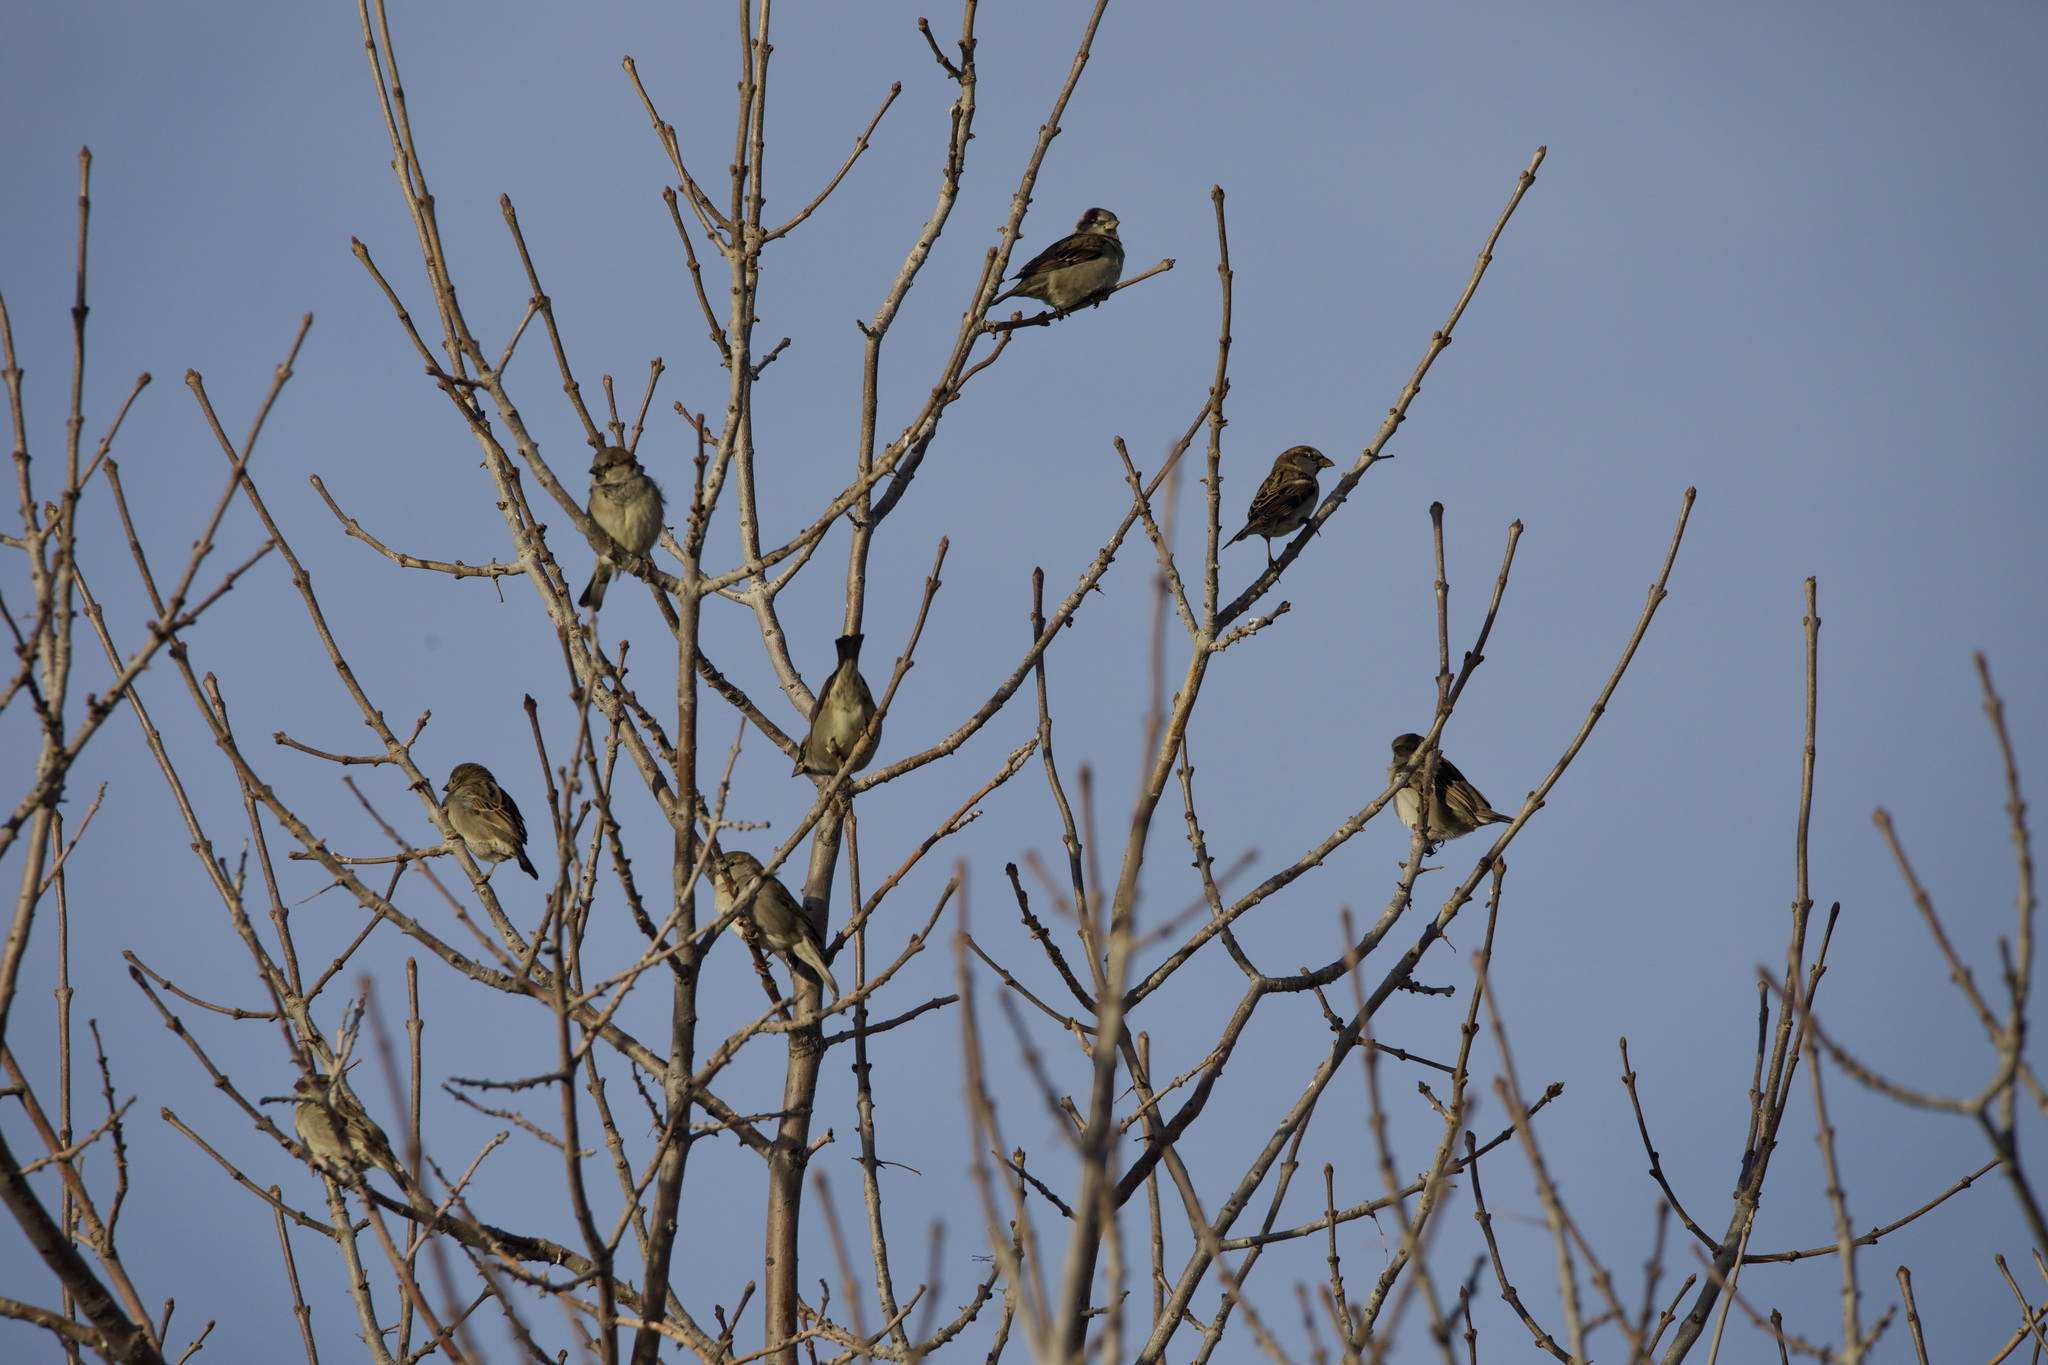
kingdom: Animalia
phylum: Chordata
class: Aves
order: Passeriformes
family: Passeridae
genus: Passer
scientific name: Passer domesticus
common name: House sparrow
